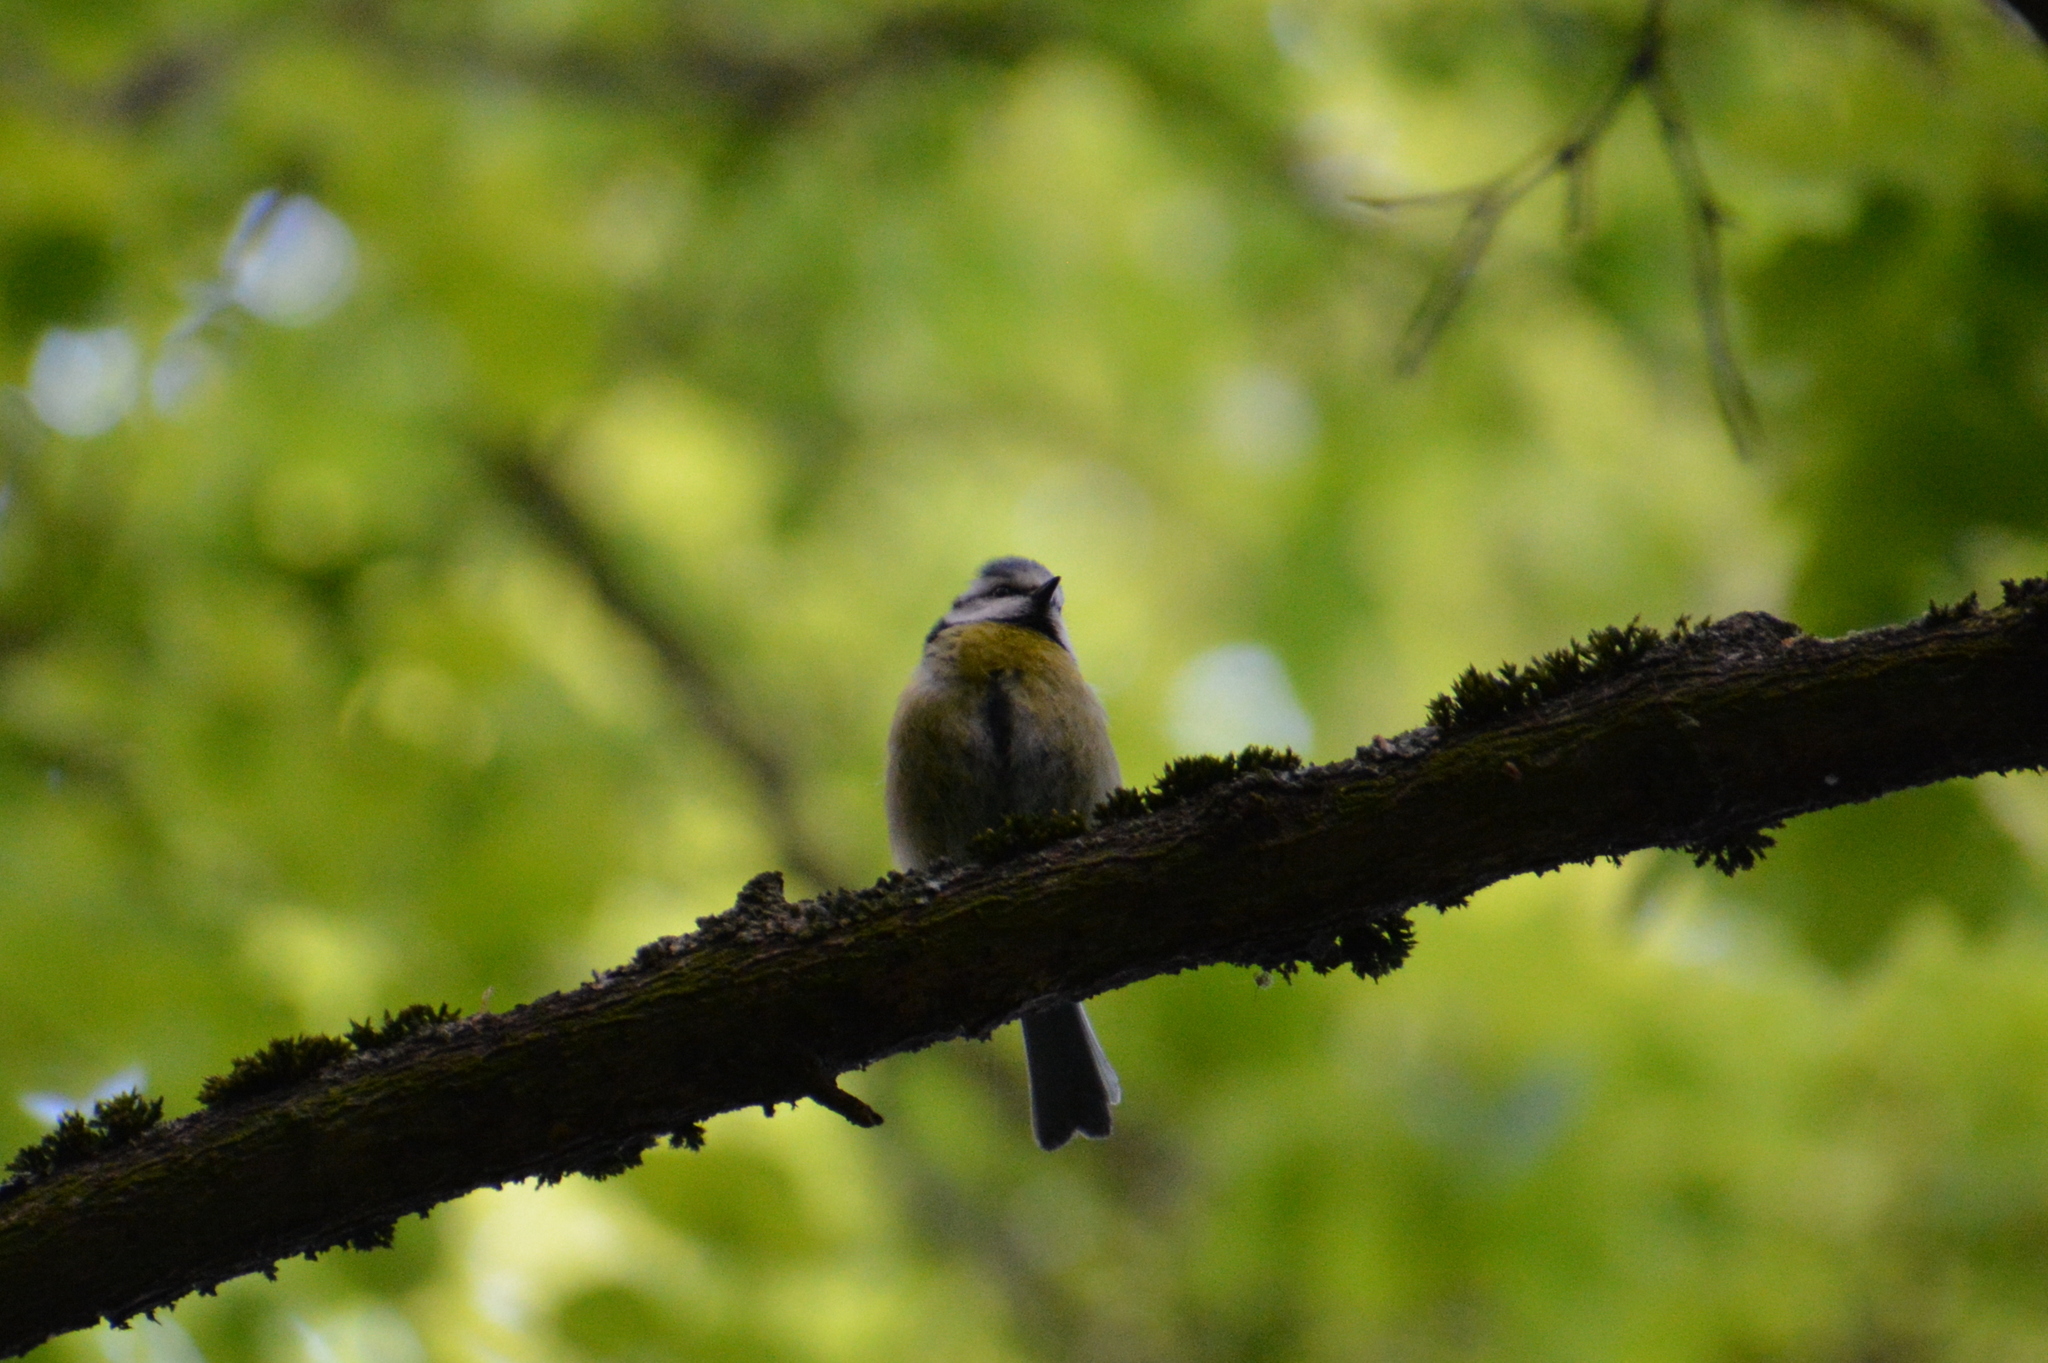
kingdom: Animalia
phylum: Chordata
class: Aves
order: Passeriformes
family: Paridae
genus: Cyanistes
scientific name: Cyanistes caeruleus
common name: Eurasian blue tit
